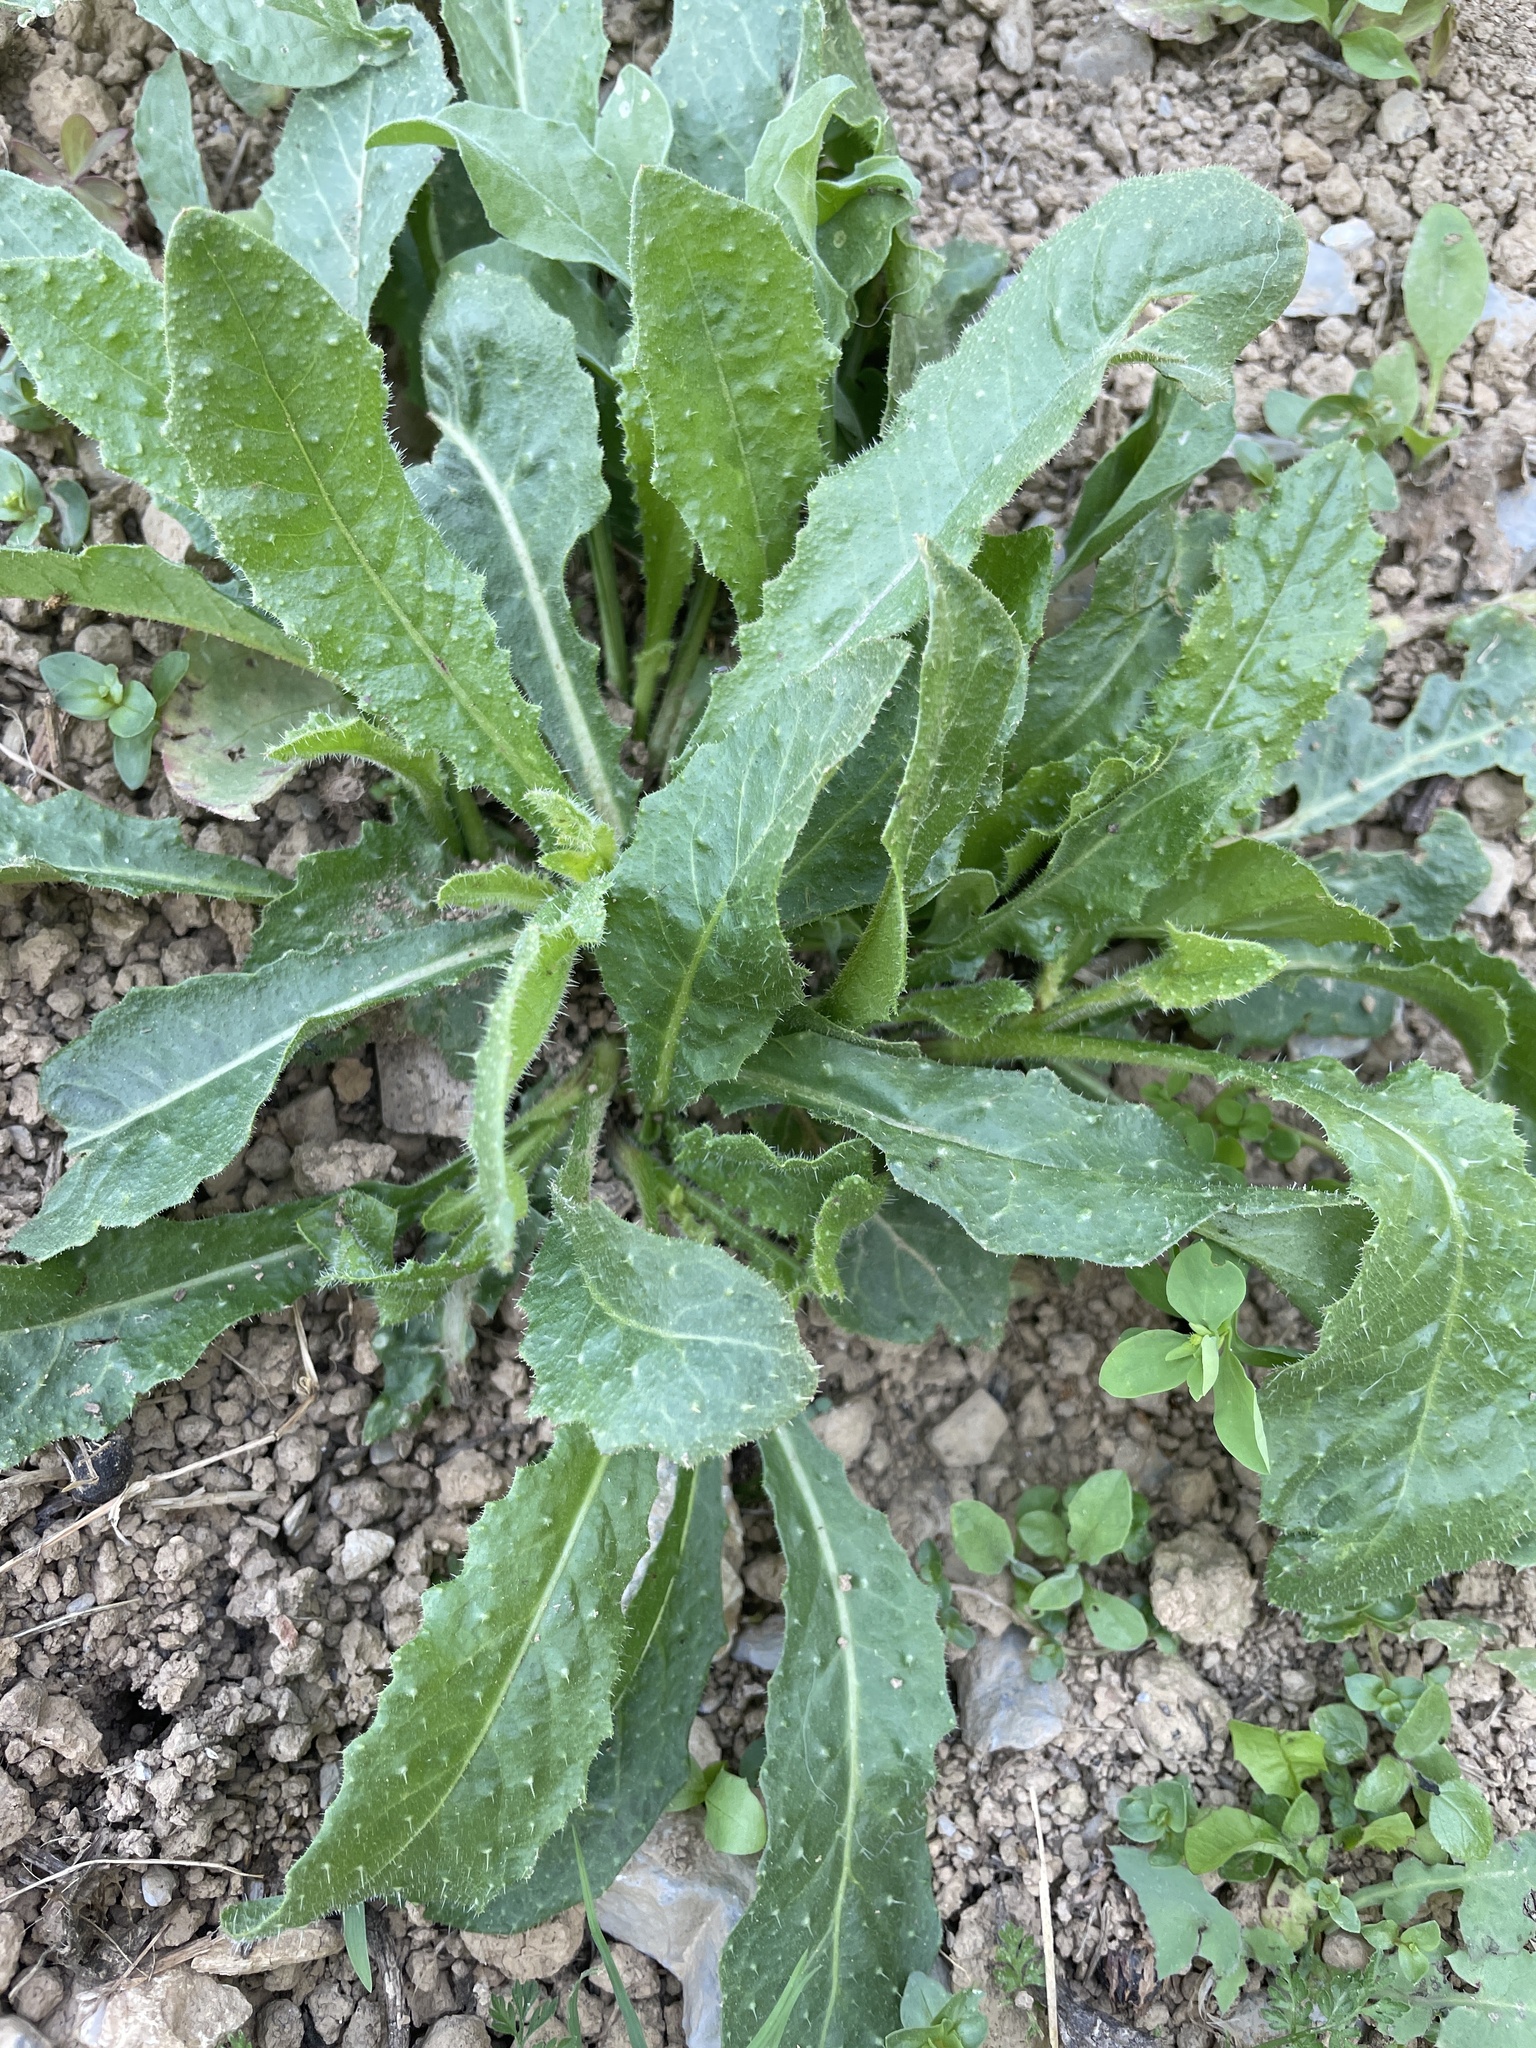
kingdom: Plantae
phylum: Tracheophyta
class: Magnoliopsida
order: Asterales
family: Asteraceae
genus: Helminthotheca
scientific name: Helminthotheca echioides
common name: Ox-tongue
